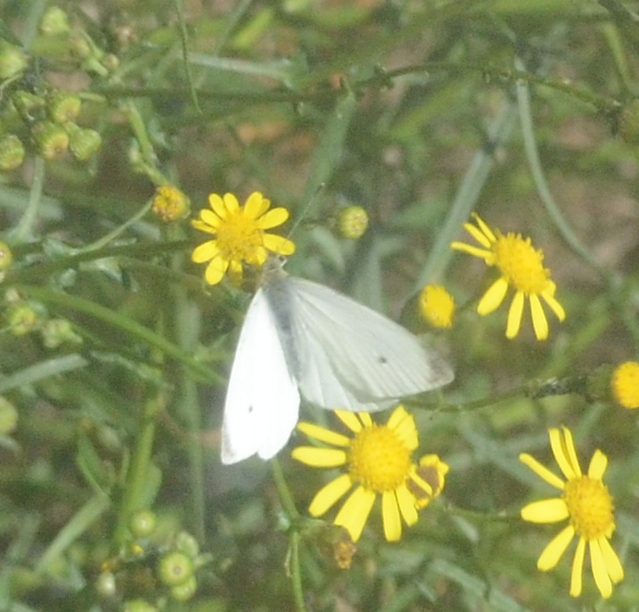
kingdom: Animalia
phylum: Arthropoda
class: Insecta
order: Lepidoptera
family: Pieridae
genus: Pieris
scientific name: Pieris rapae
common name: Small white
